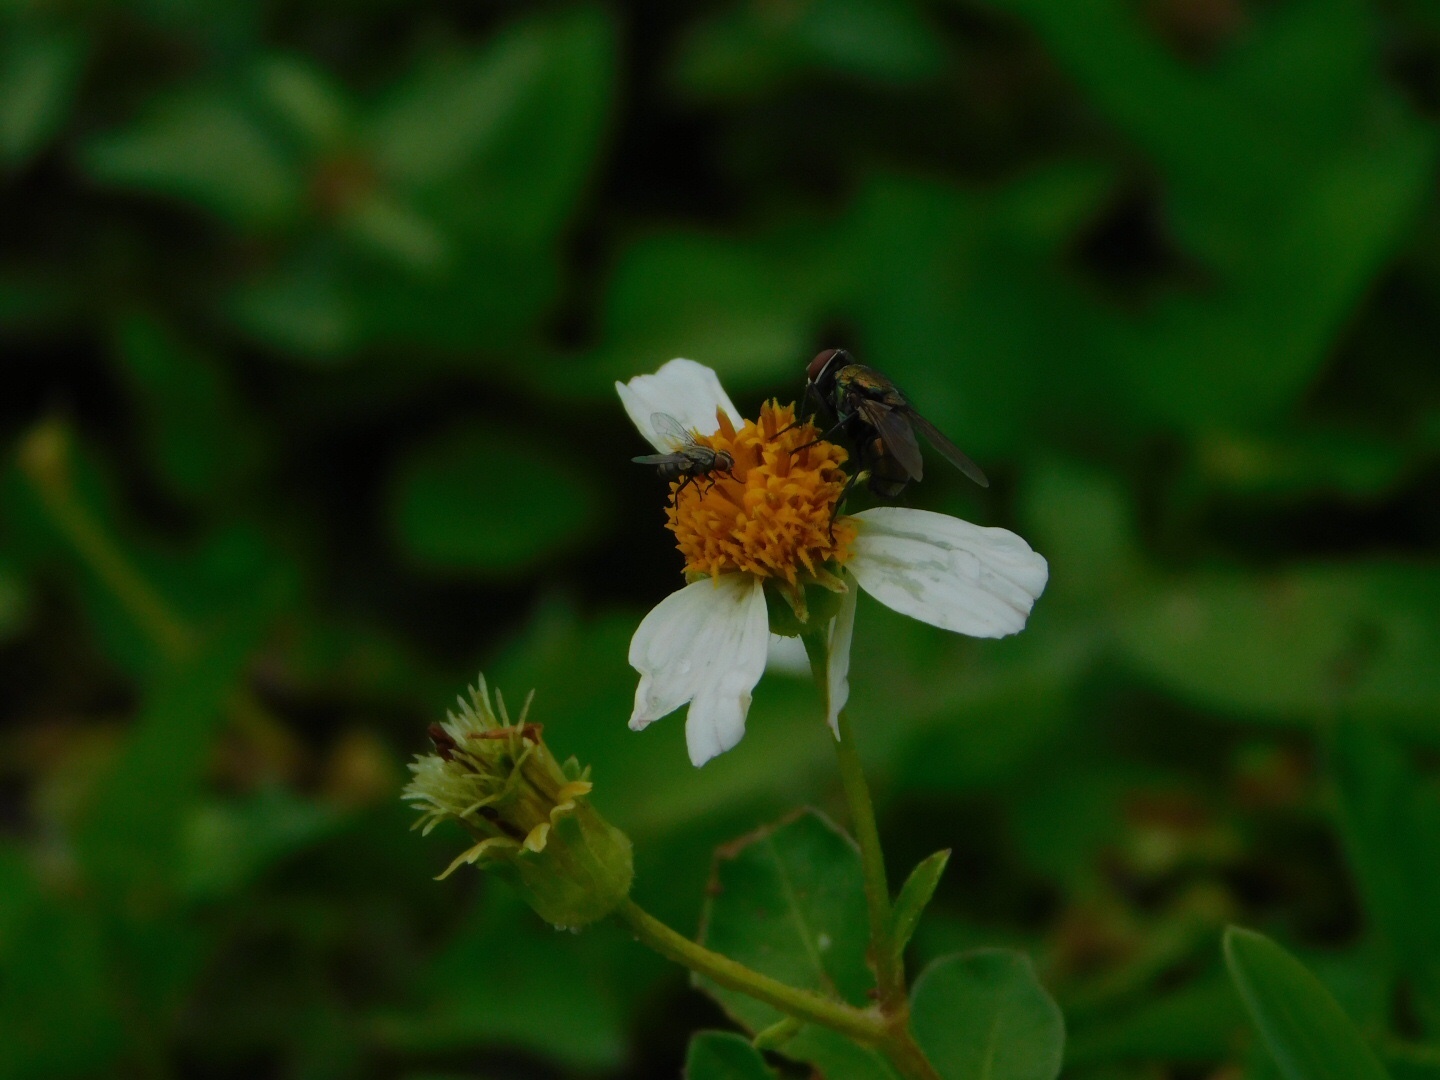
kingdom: Plantae
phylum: Tracheophyta
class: Magnoliopsida
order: Asterales
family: Asteraceae
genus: Bidens
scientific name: Bidens alba
